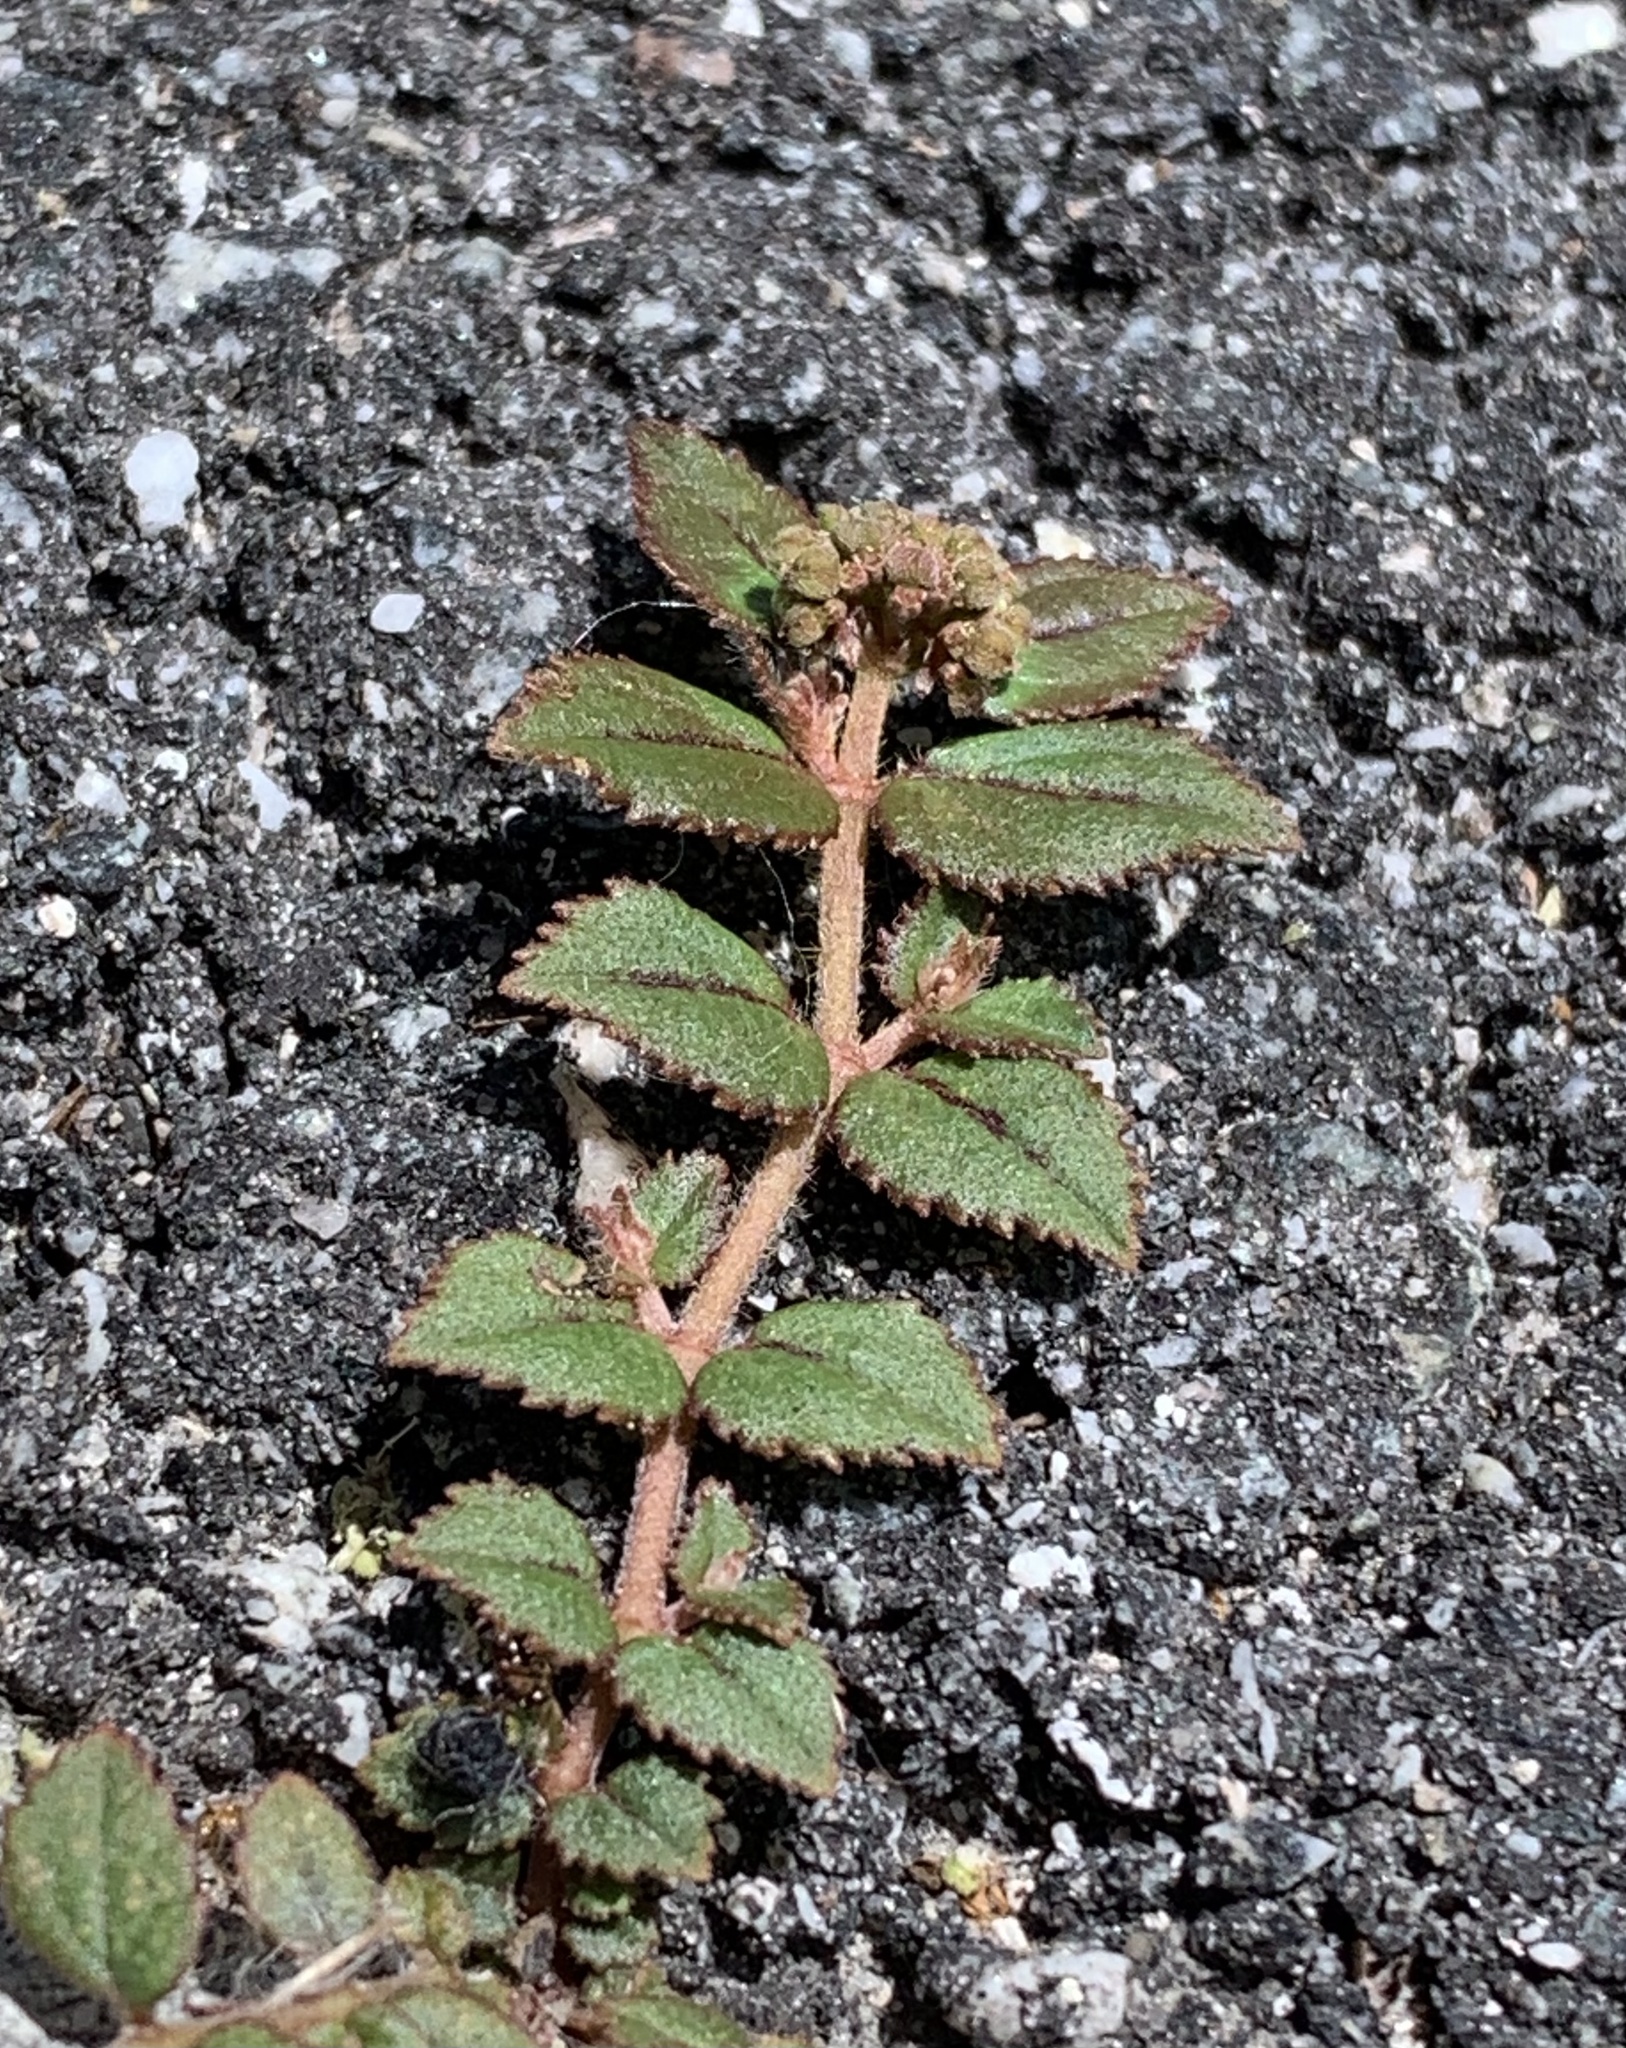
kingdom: Plantae
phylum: Tracheophyta
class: Magnoliopsida
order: Malpighiales
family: Euphorbiaceae
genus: Euphorbia
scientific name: Euphorbia ophthalmica
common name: Florida hammock sandmat
